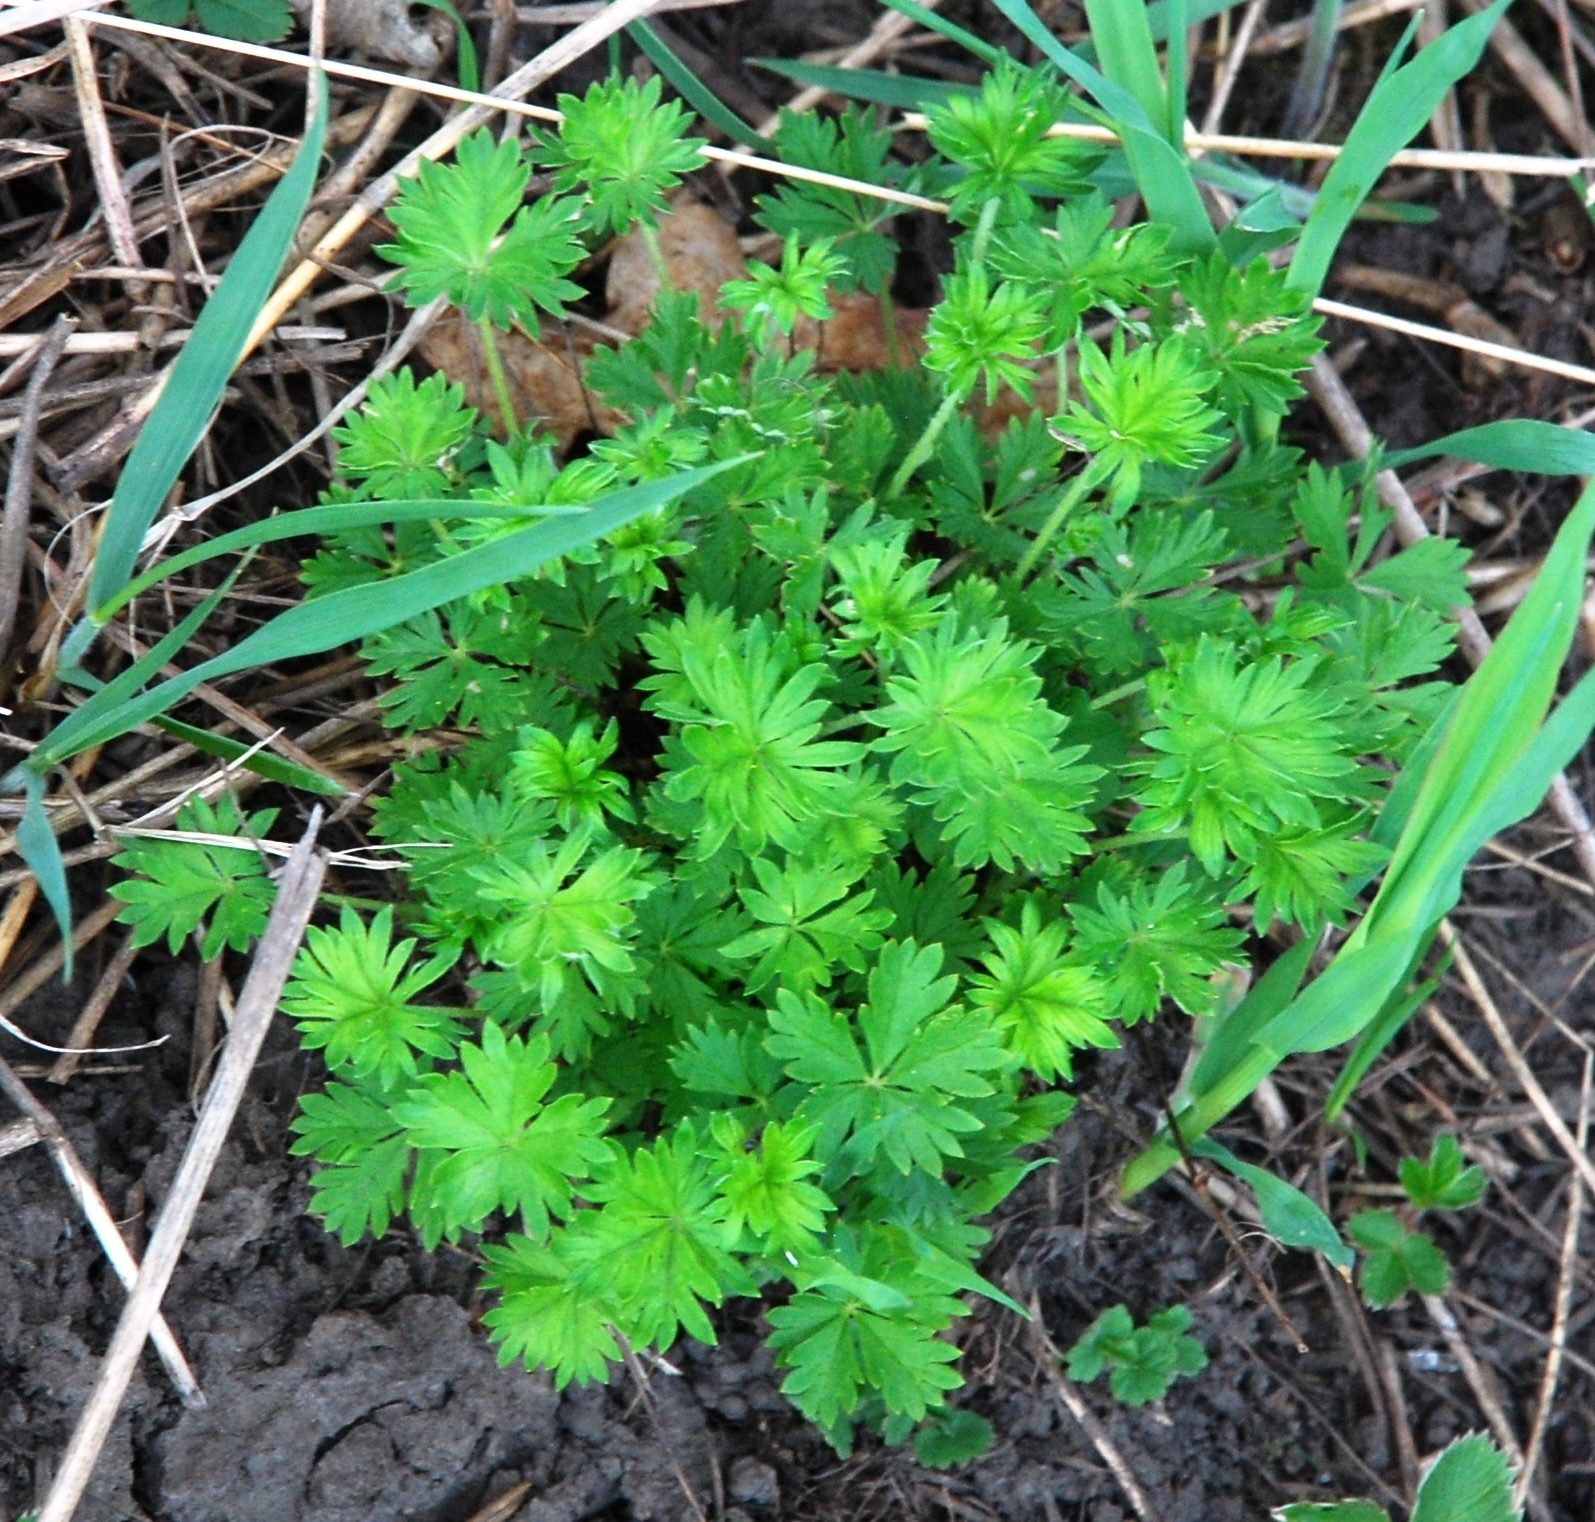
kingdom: Plantae
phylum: Tracheophyta
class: Magnoliopsida
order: Rosales
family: Rosaceae
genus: Potentilla
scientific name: Potentilla argentea
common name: Hoary cinquefoil
